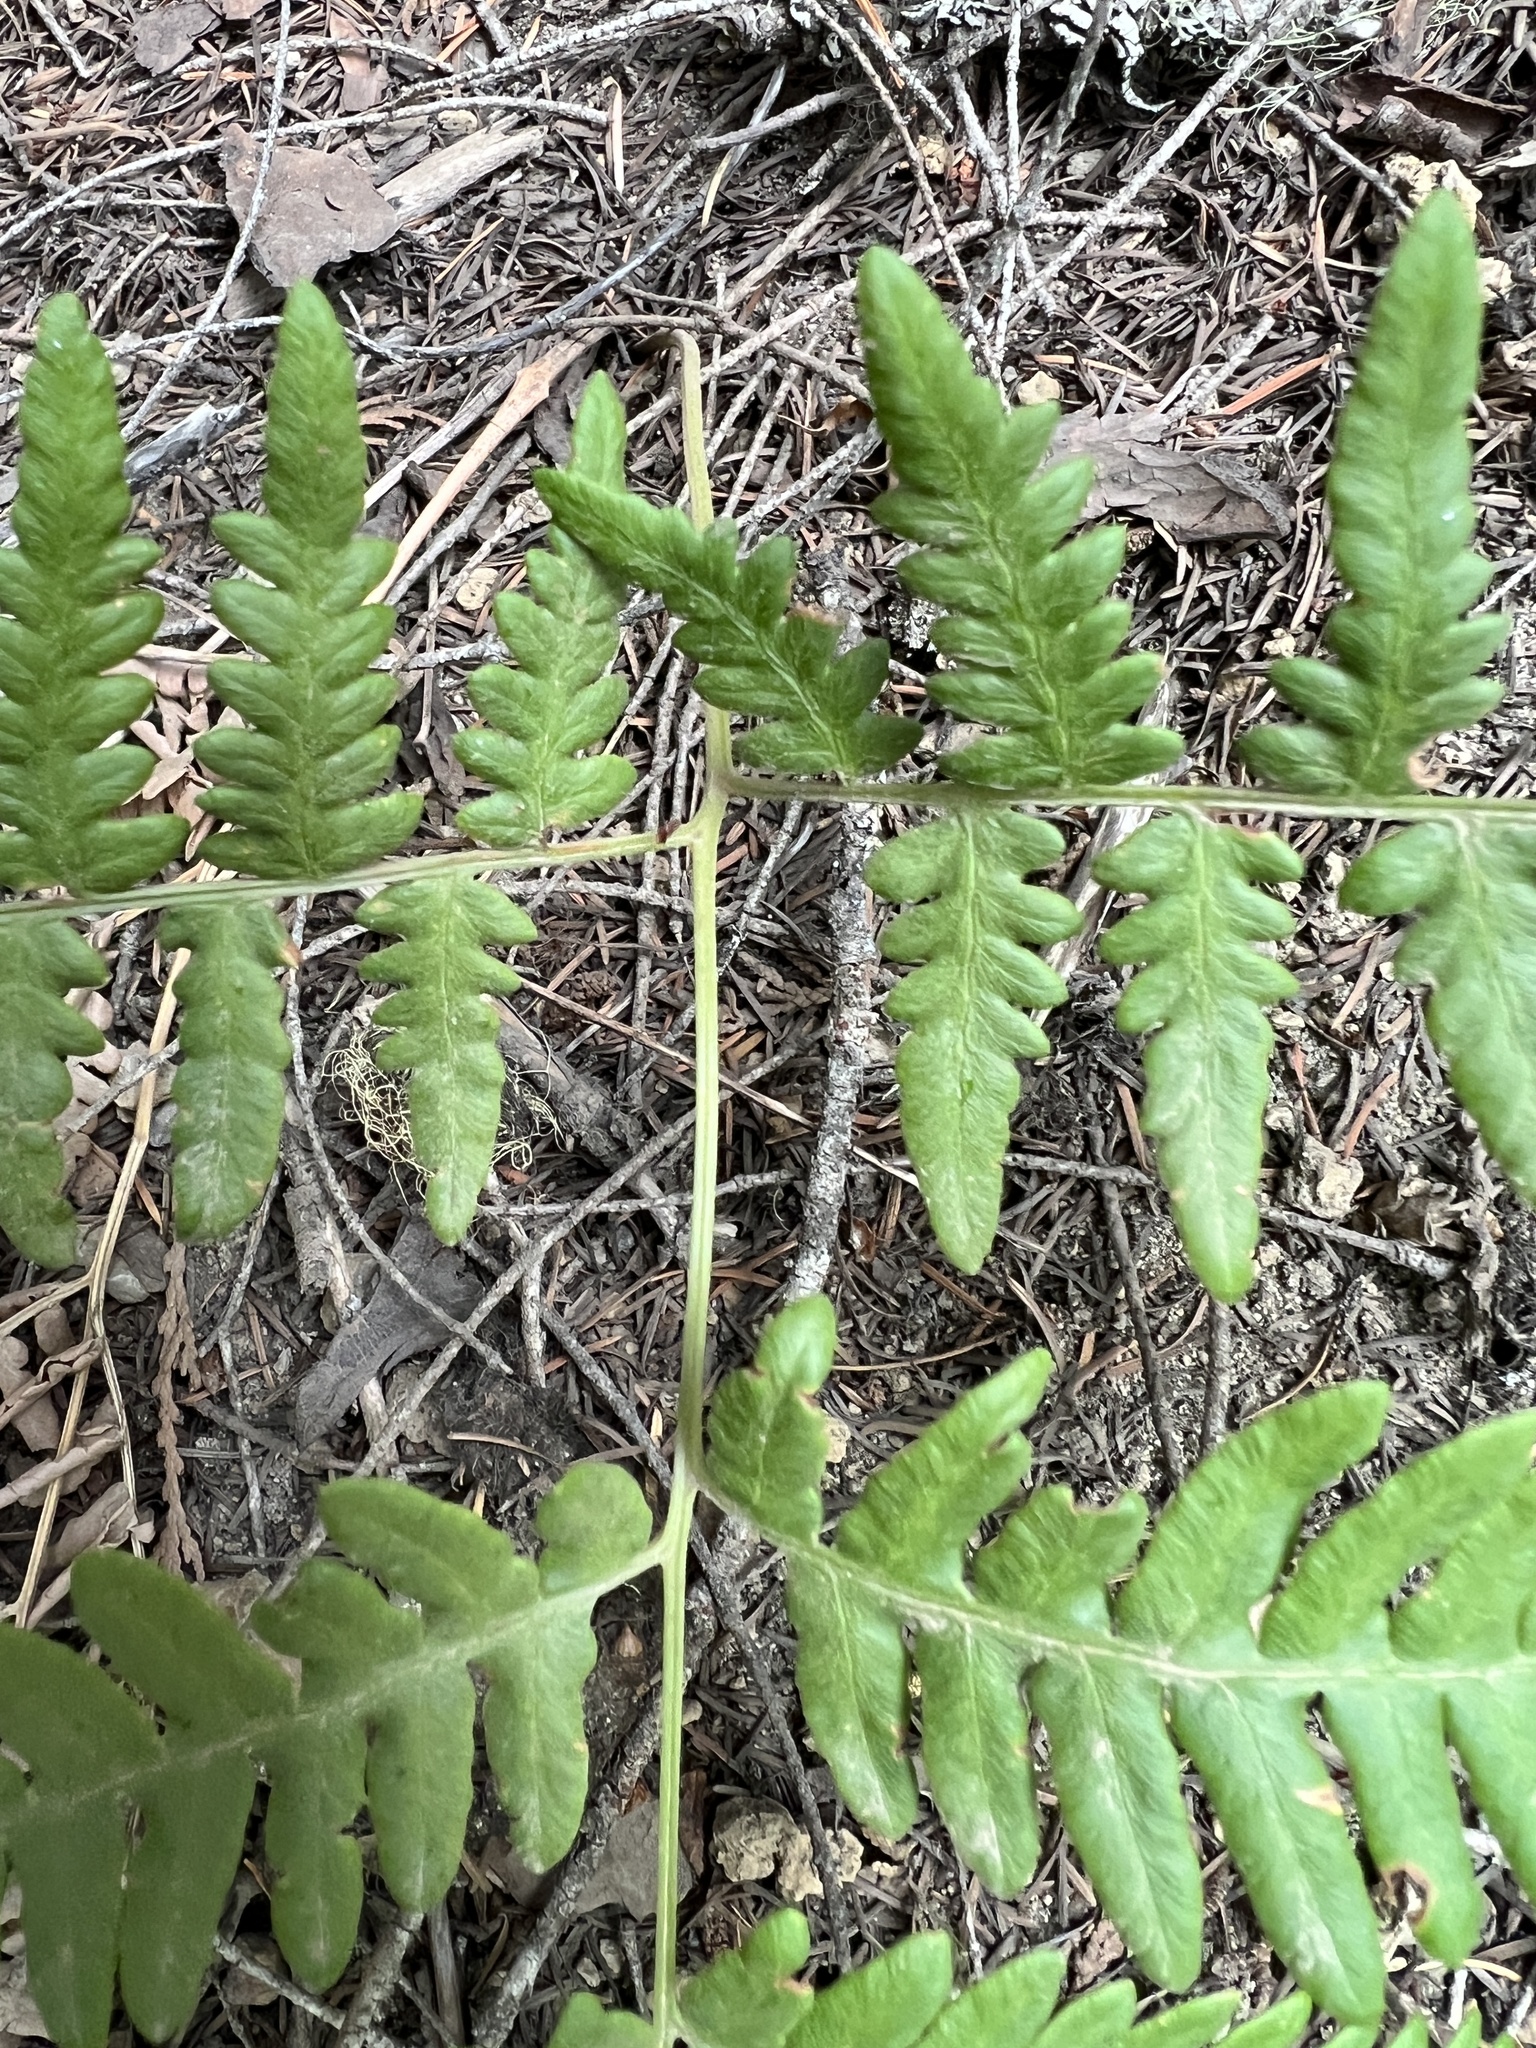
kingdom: Plantae
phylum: Tracheophyta
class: Polypodiopsida
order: Polypodiales
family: Dennstaedtiaceae
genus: Pteridium
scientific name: Pteridium aquilinum
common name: Bracken
